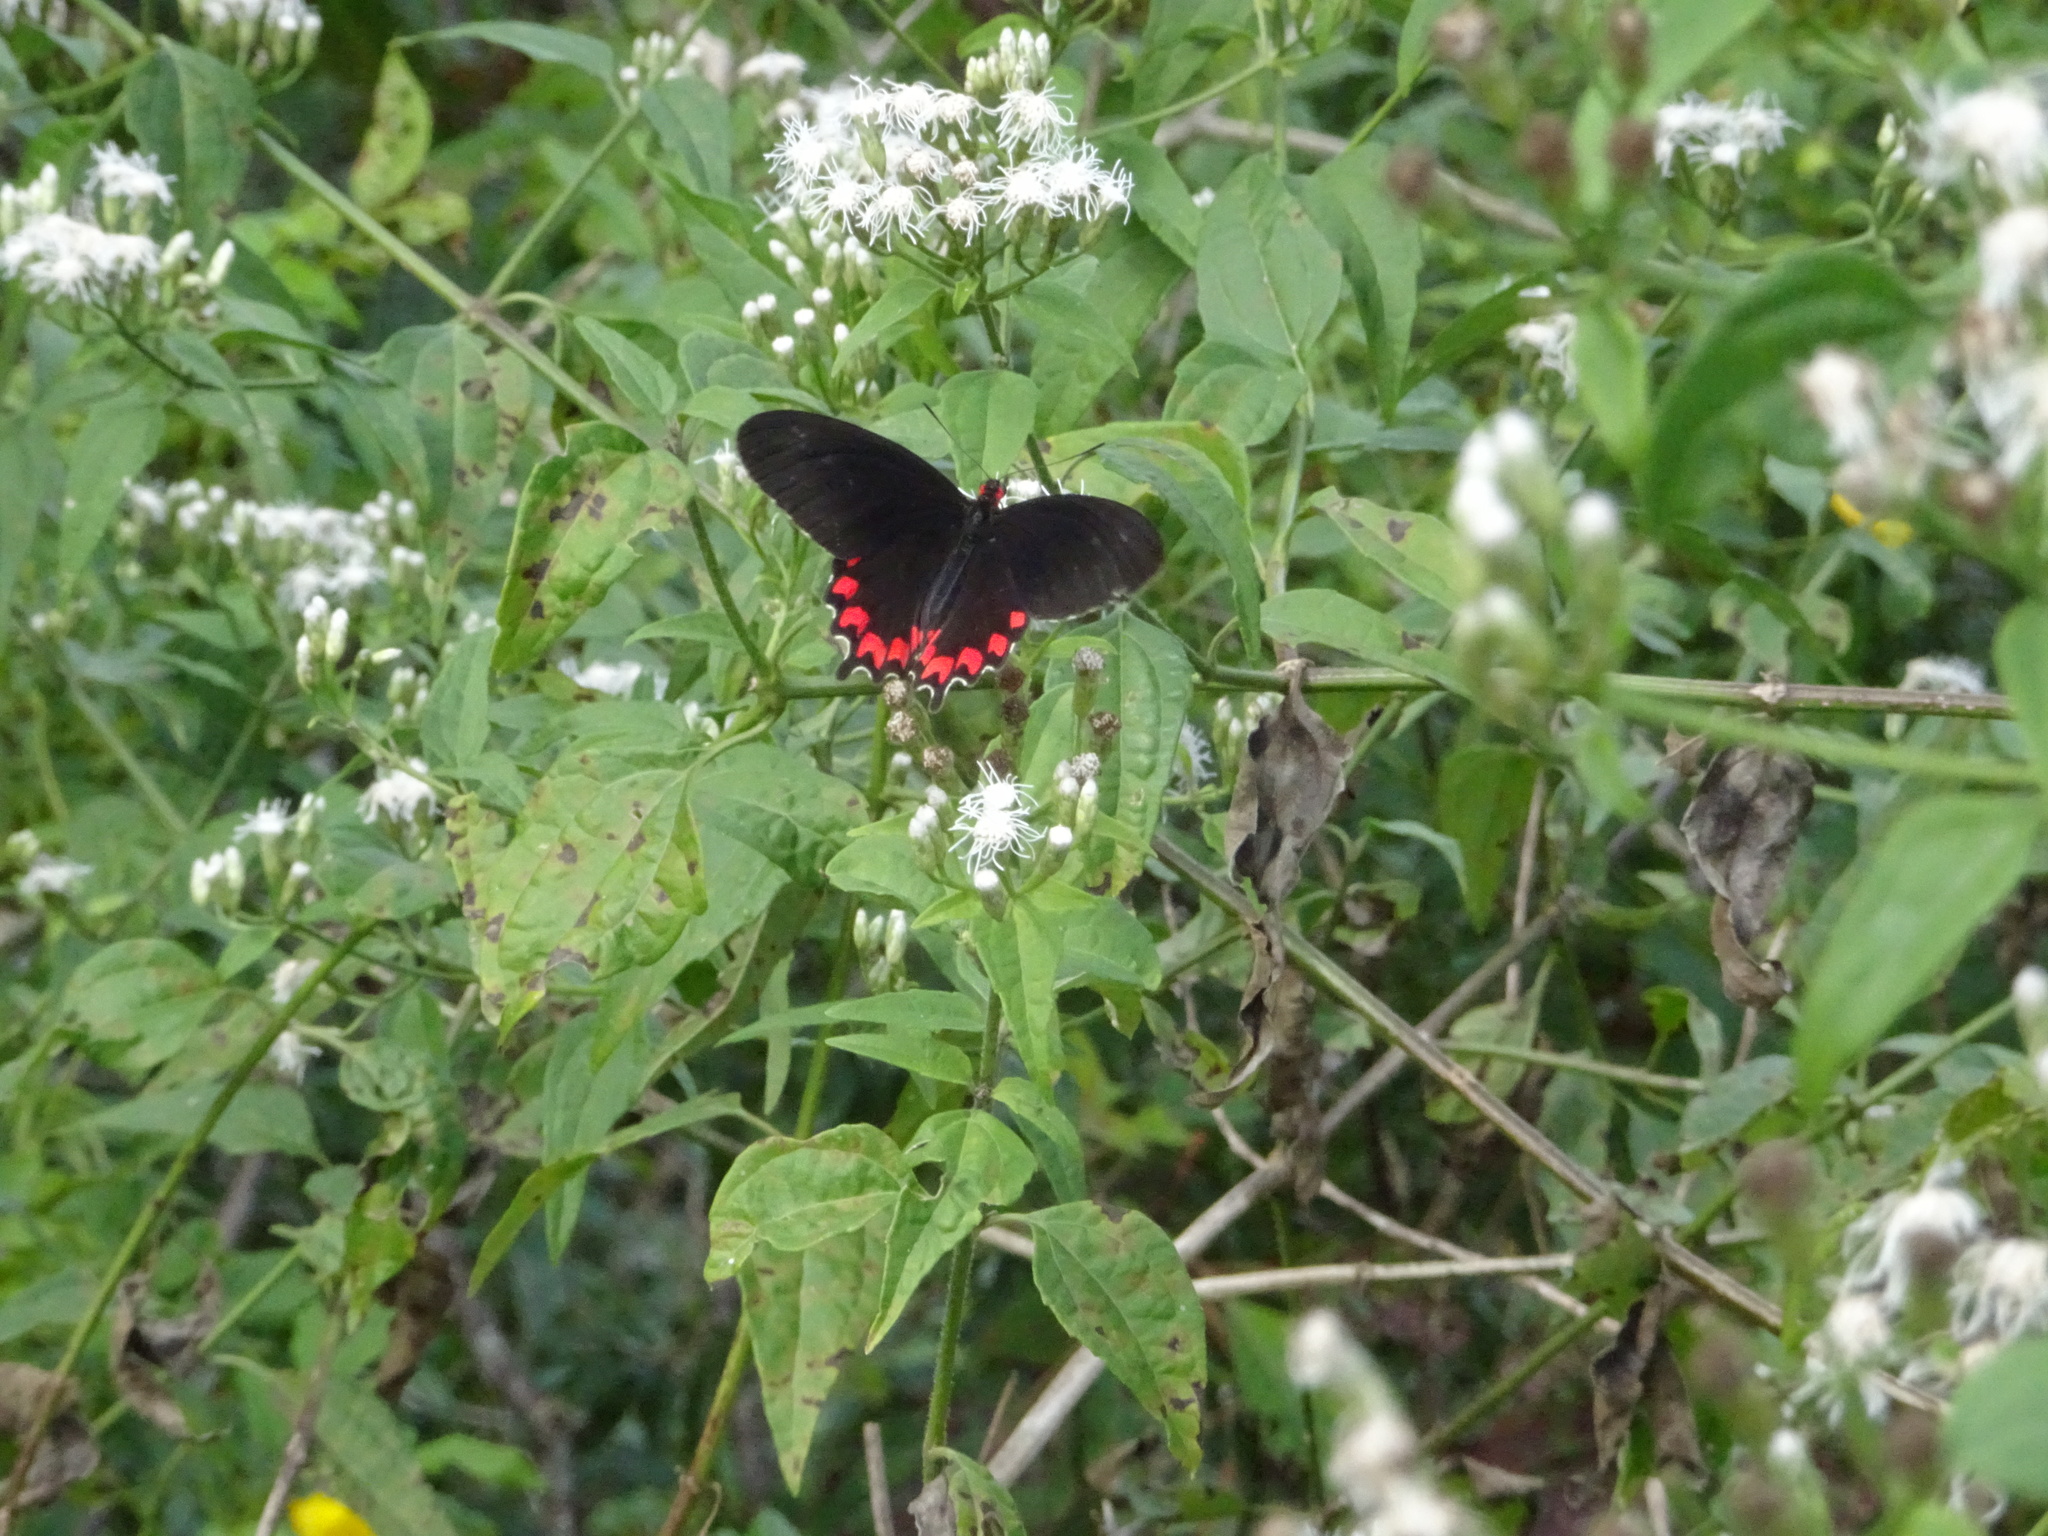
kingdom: Animalia
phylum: Arthropoda
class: Insecta
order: Lepidoptera
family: Papilionidae
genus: Parides
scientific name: Parides montezuma
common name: Montezuma's cattleheart
